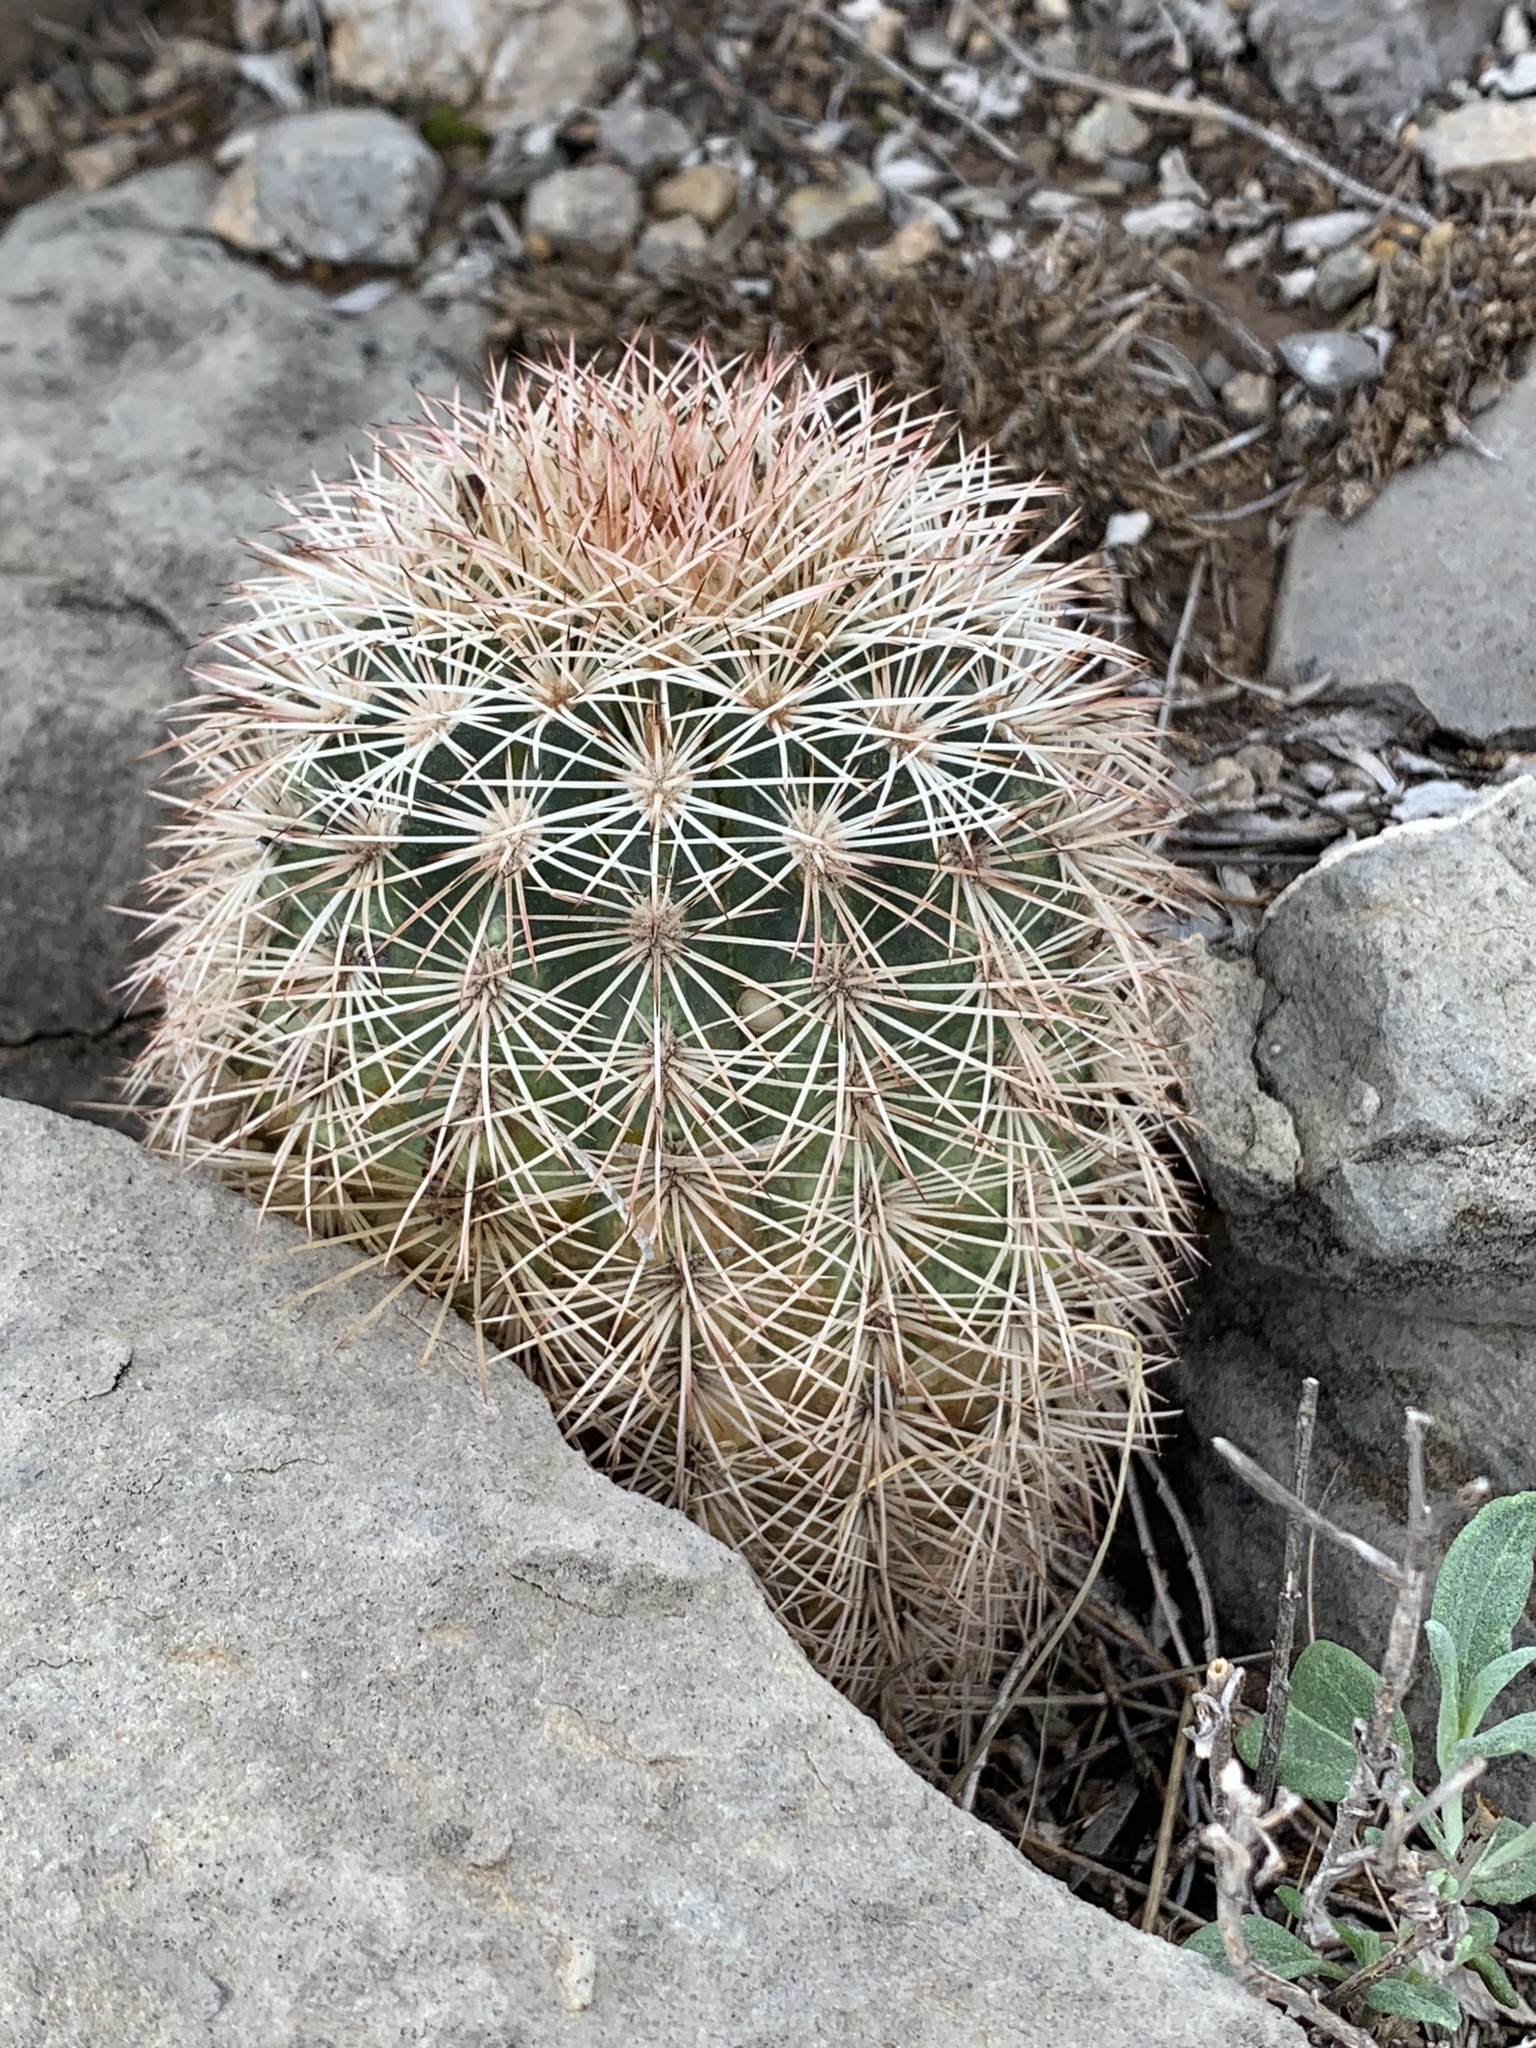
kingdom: Plantae
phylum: Tracheophyta
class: Magnoliopsida
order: Caryophyllales
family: Cactaceae
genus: Echinocereus
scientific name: Echinocereus dasyacanthus
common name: Spiny hedgehog cactus
